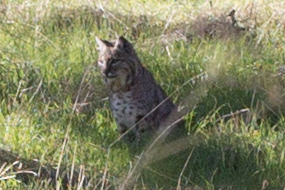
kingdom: Animalia
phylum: Chordata
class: Mammalia
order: Carnivora
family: Felidae
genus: Lynx
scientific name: Lynx rufus
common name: Bobcat
